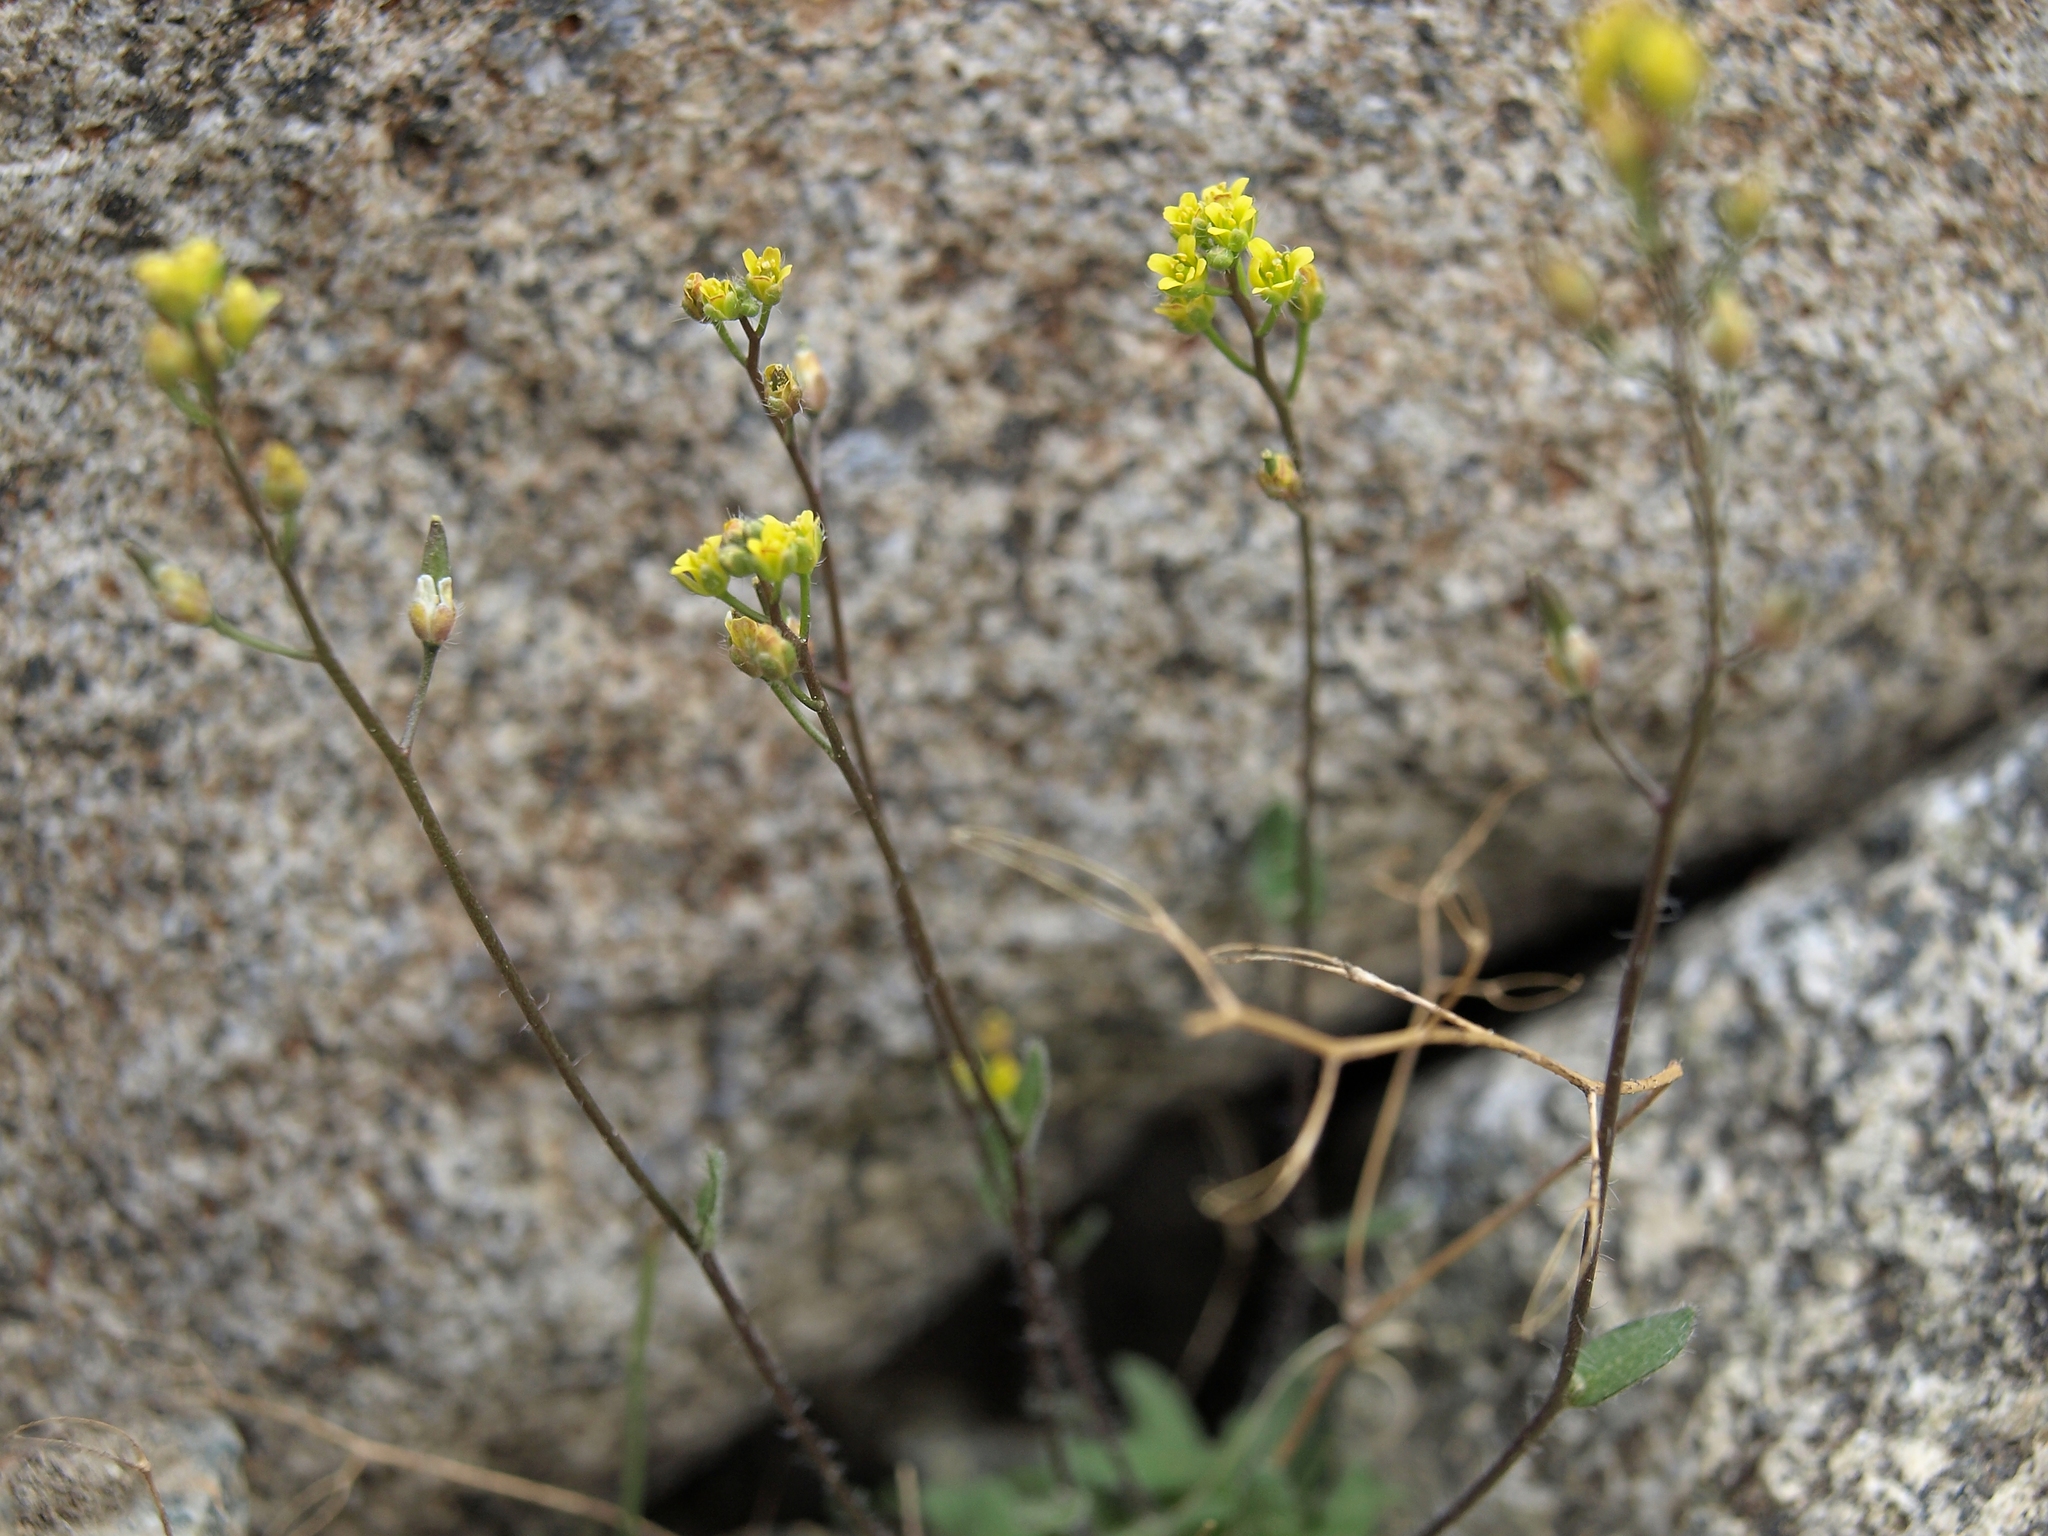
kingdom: Plantae
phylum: Tracheophyta
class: Magnoliopsida
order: Brassicales
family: Brassicaceae
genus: Draba
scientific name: Draba albertina
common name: Slender draba
